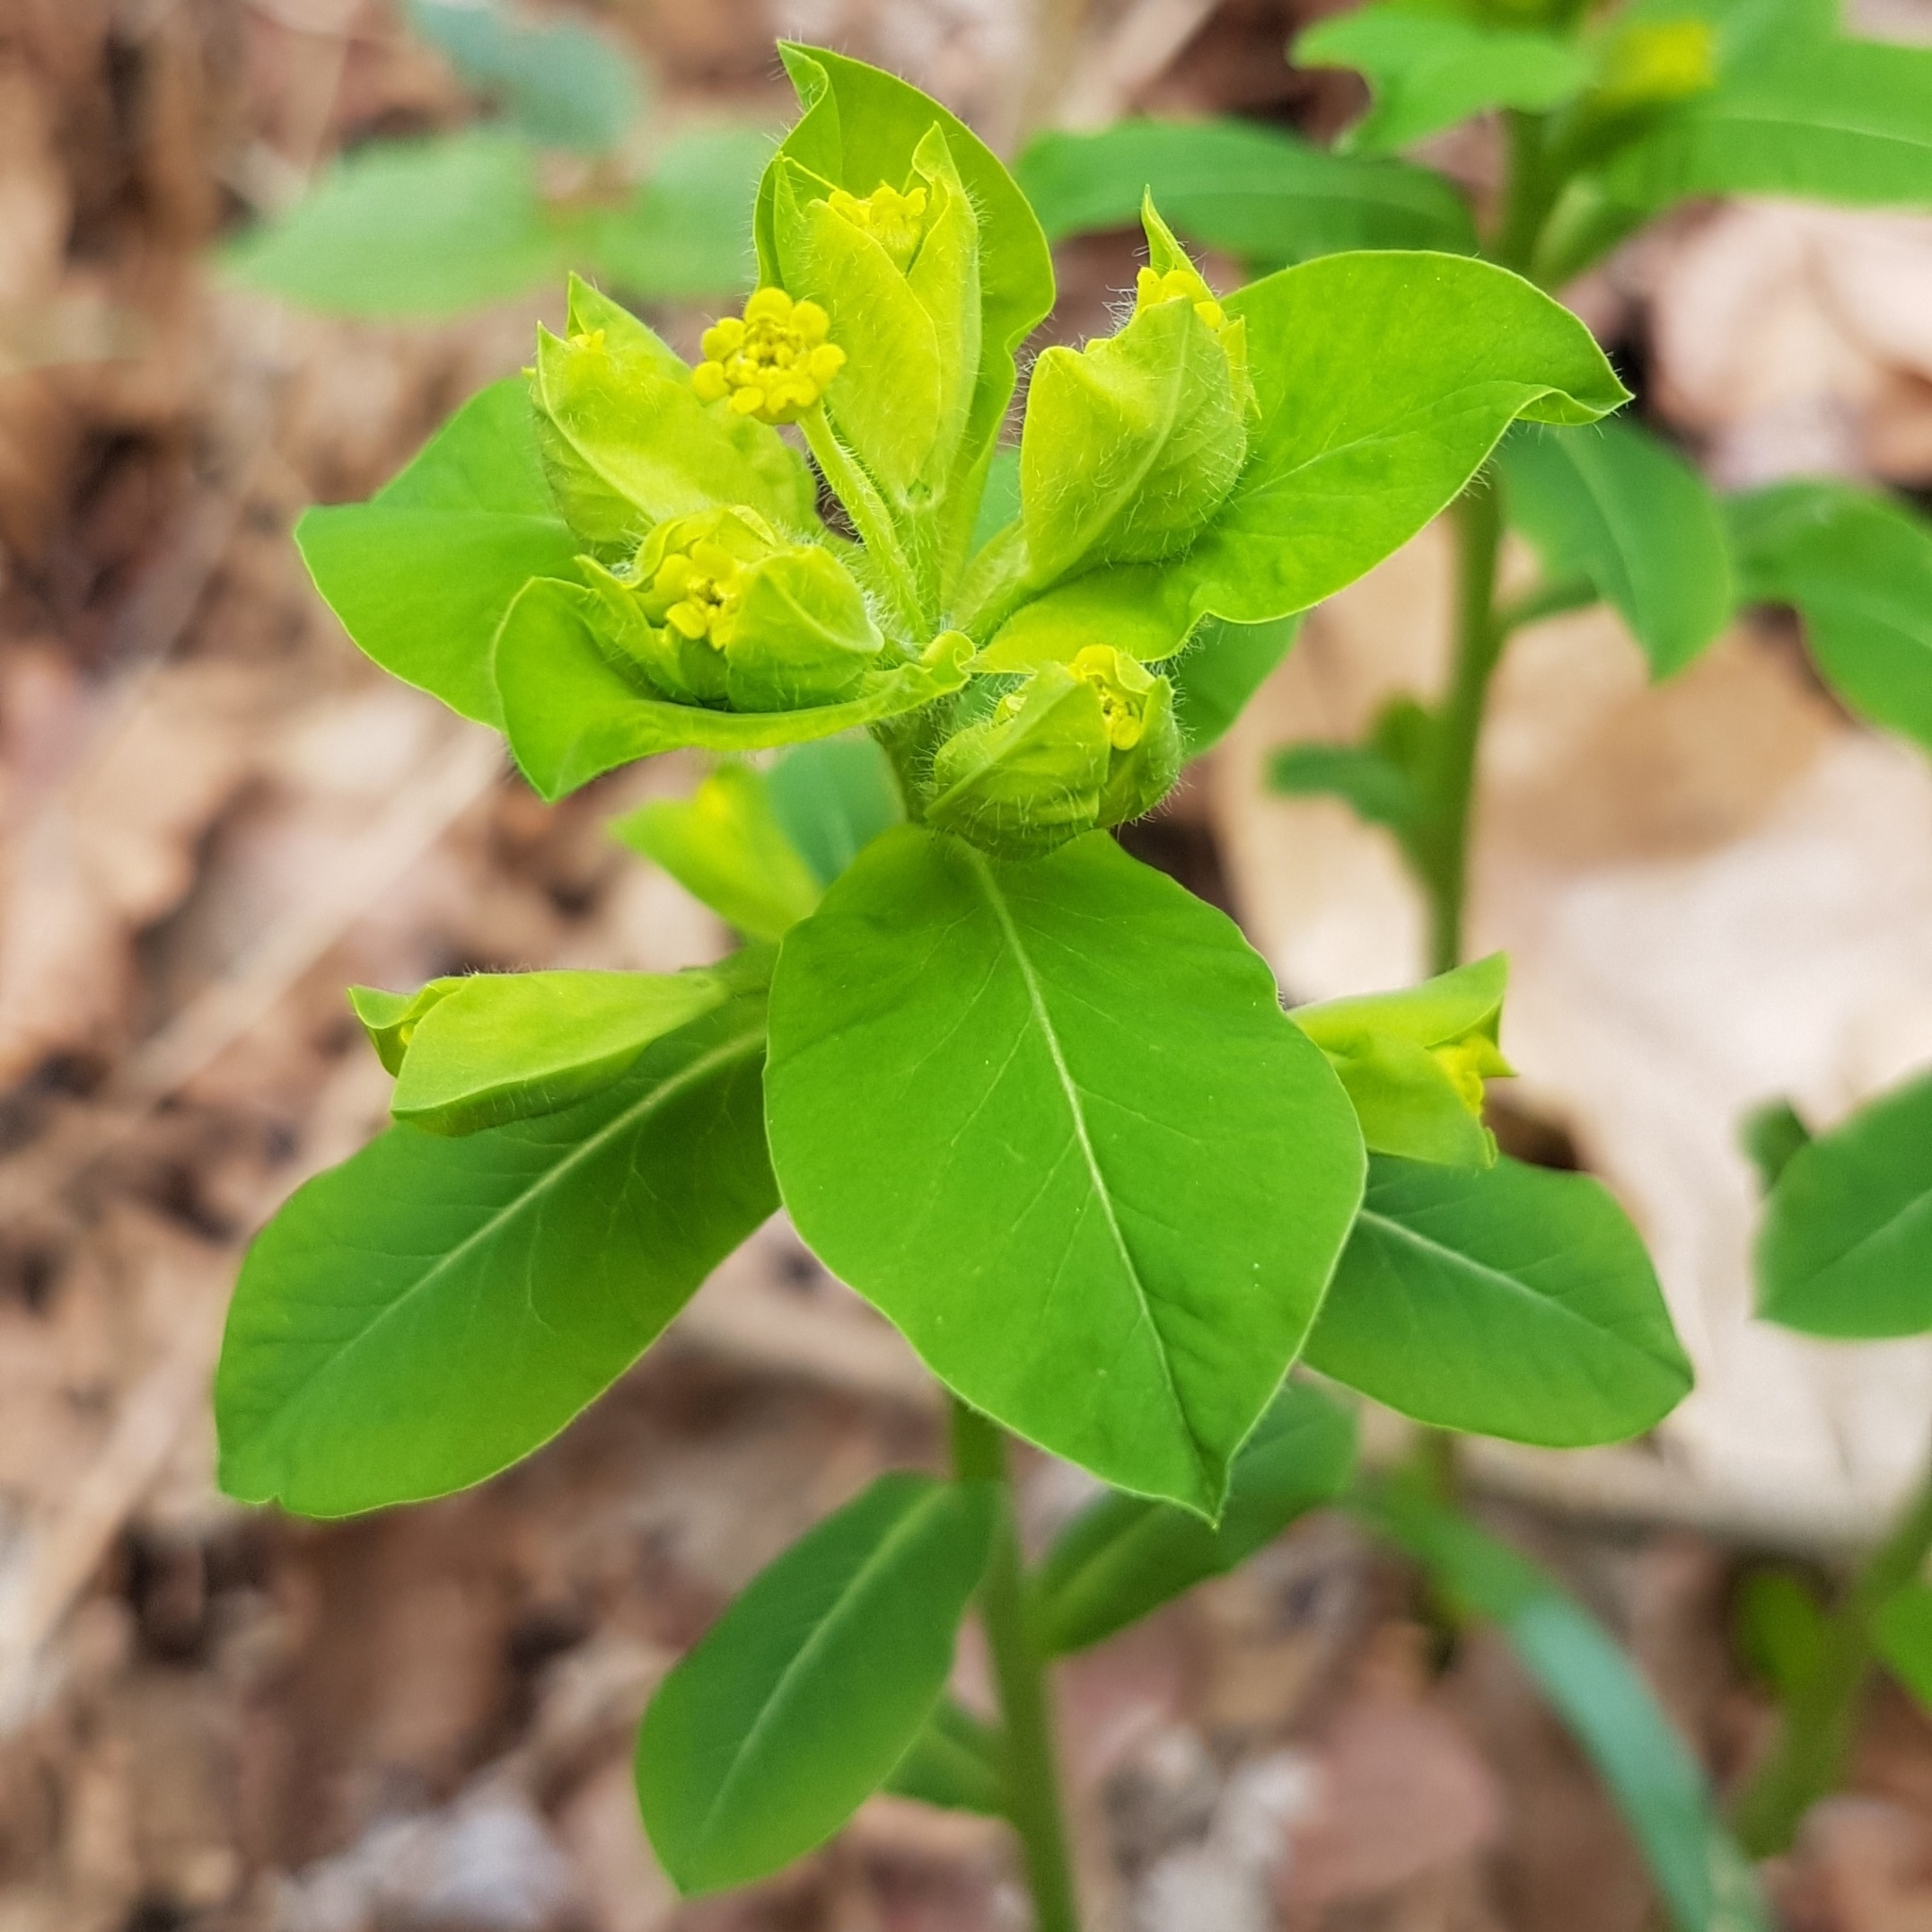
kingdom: Plantae
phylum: Tracheophyta
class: Magnoliopsida
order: Malpighiales
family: Euphorbiaceae
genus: Euphorbia
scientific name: Euphorbia carniolica
